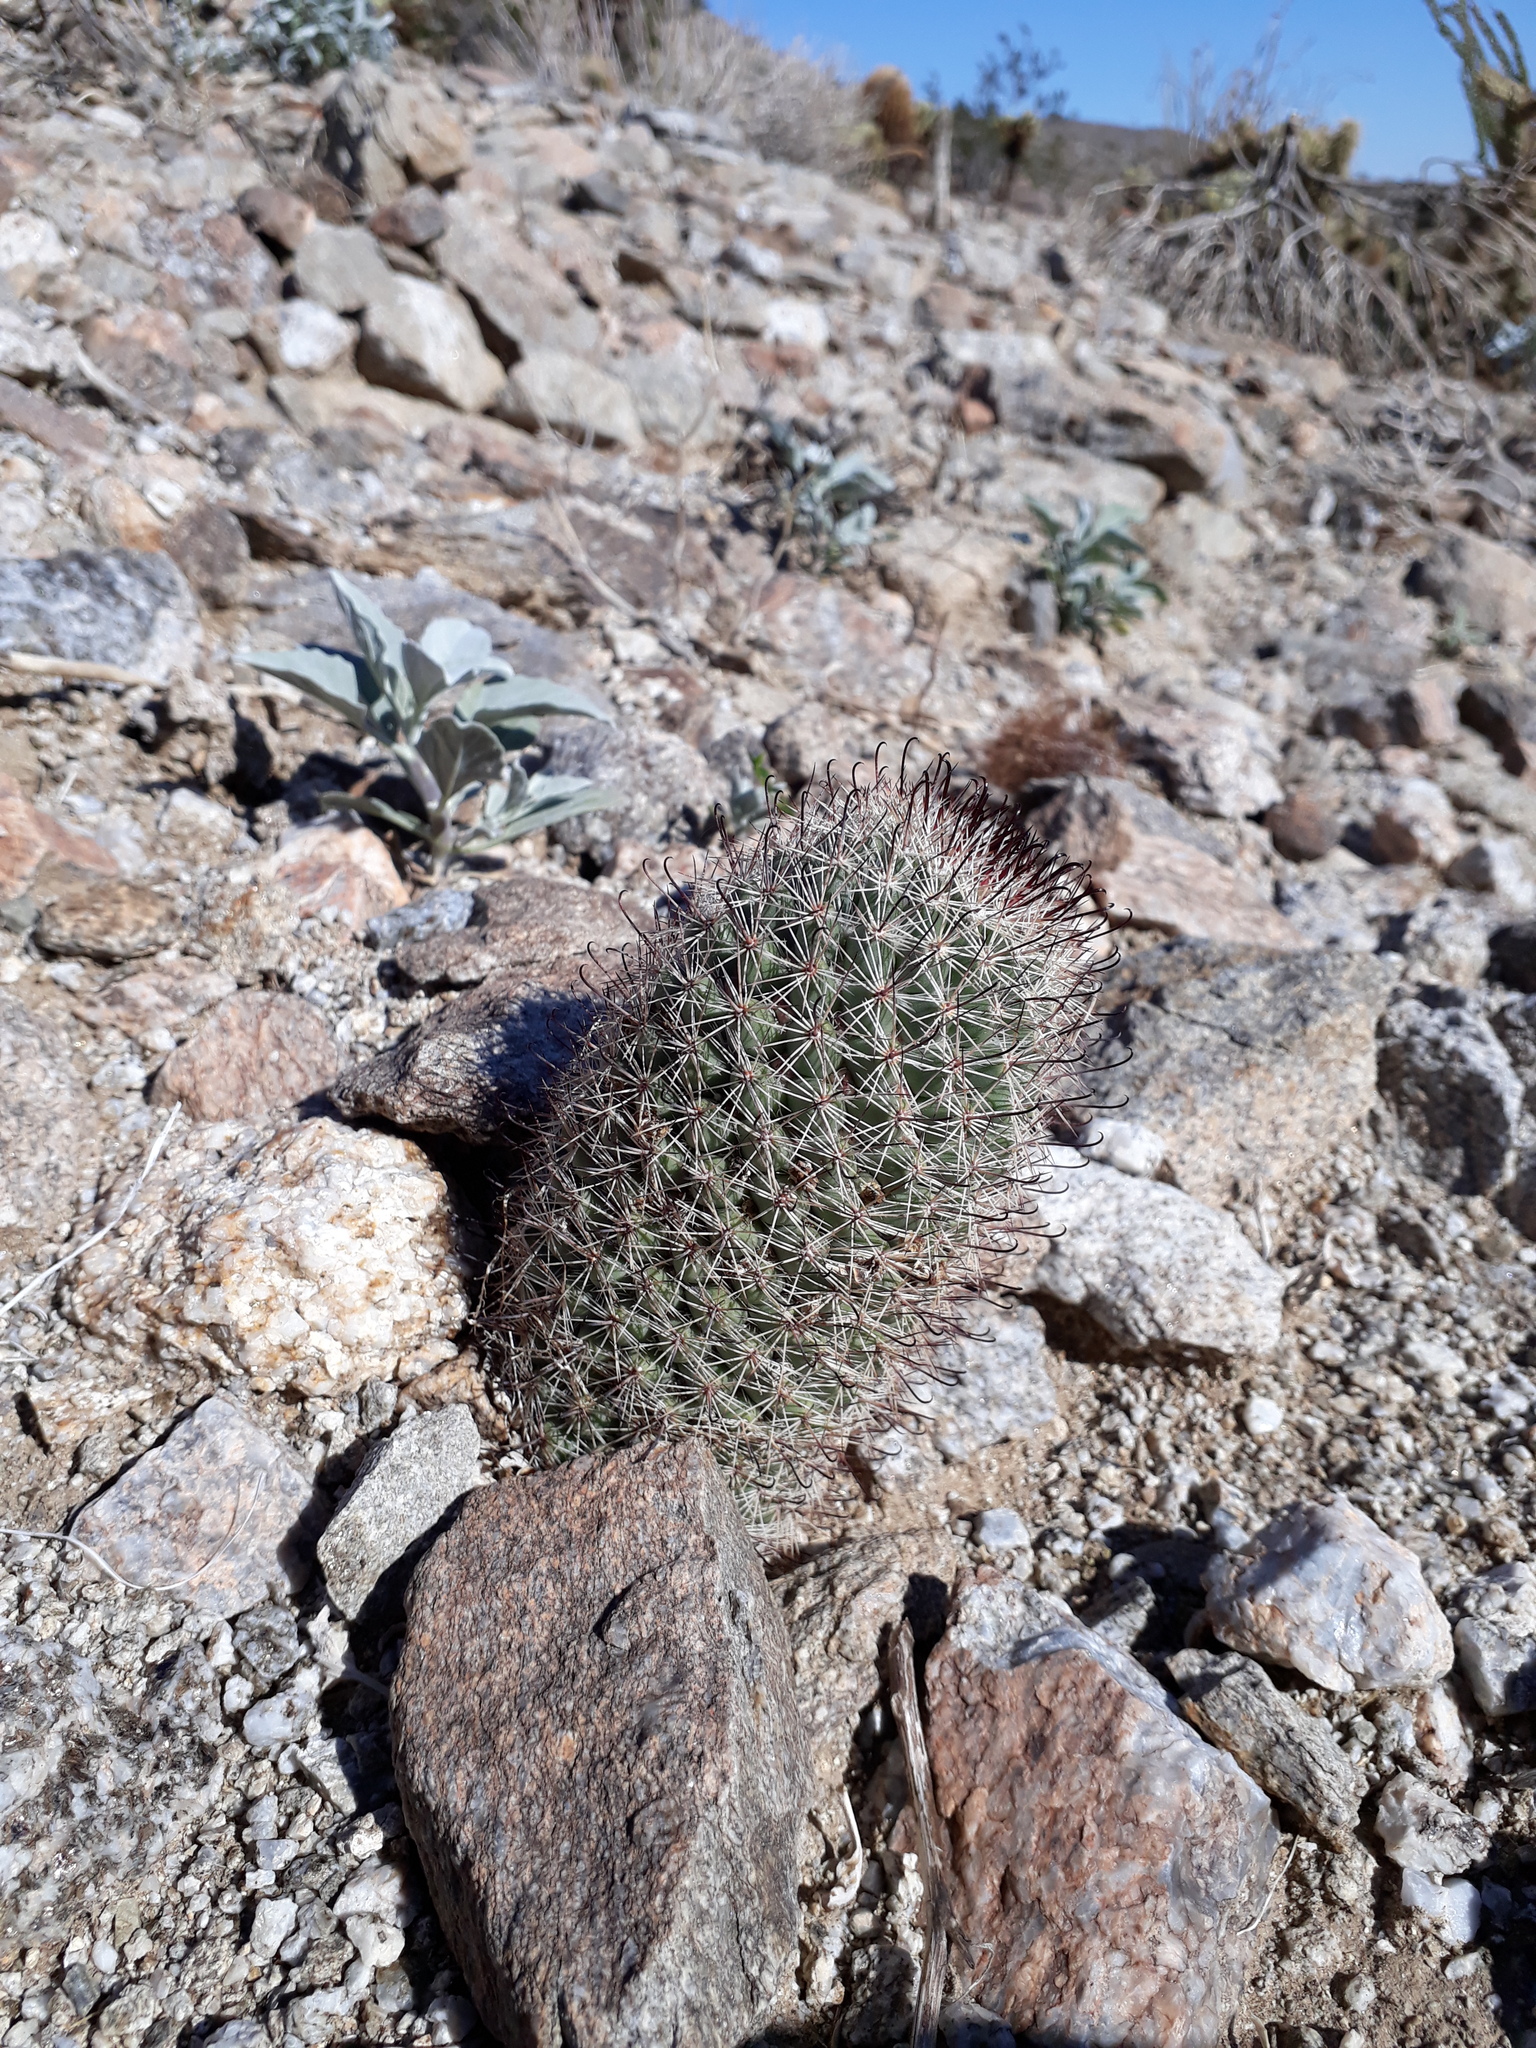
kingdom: Plantae
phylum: Tracheophyta
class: Magnoliopsida
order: Caryophyllales
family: Cactaceae
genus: Cochemiea
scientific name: Cochemiea dioica
